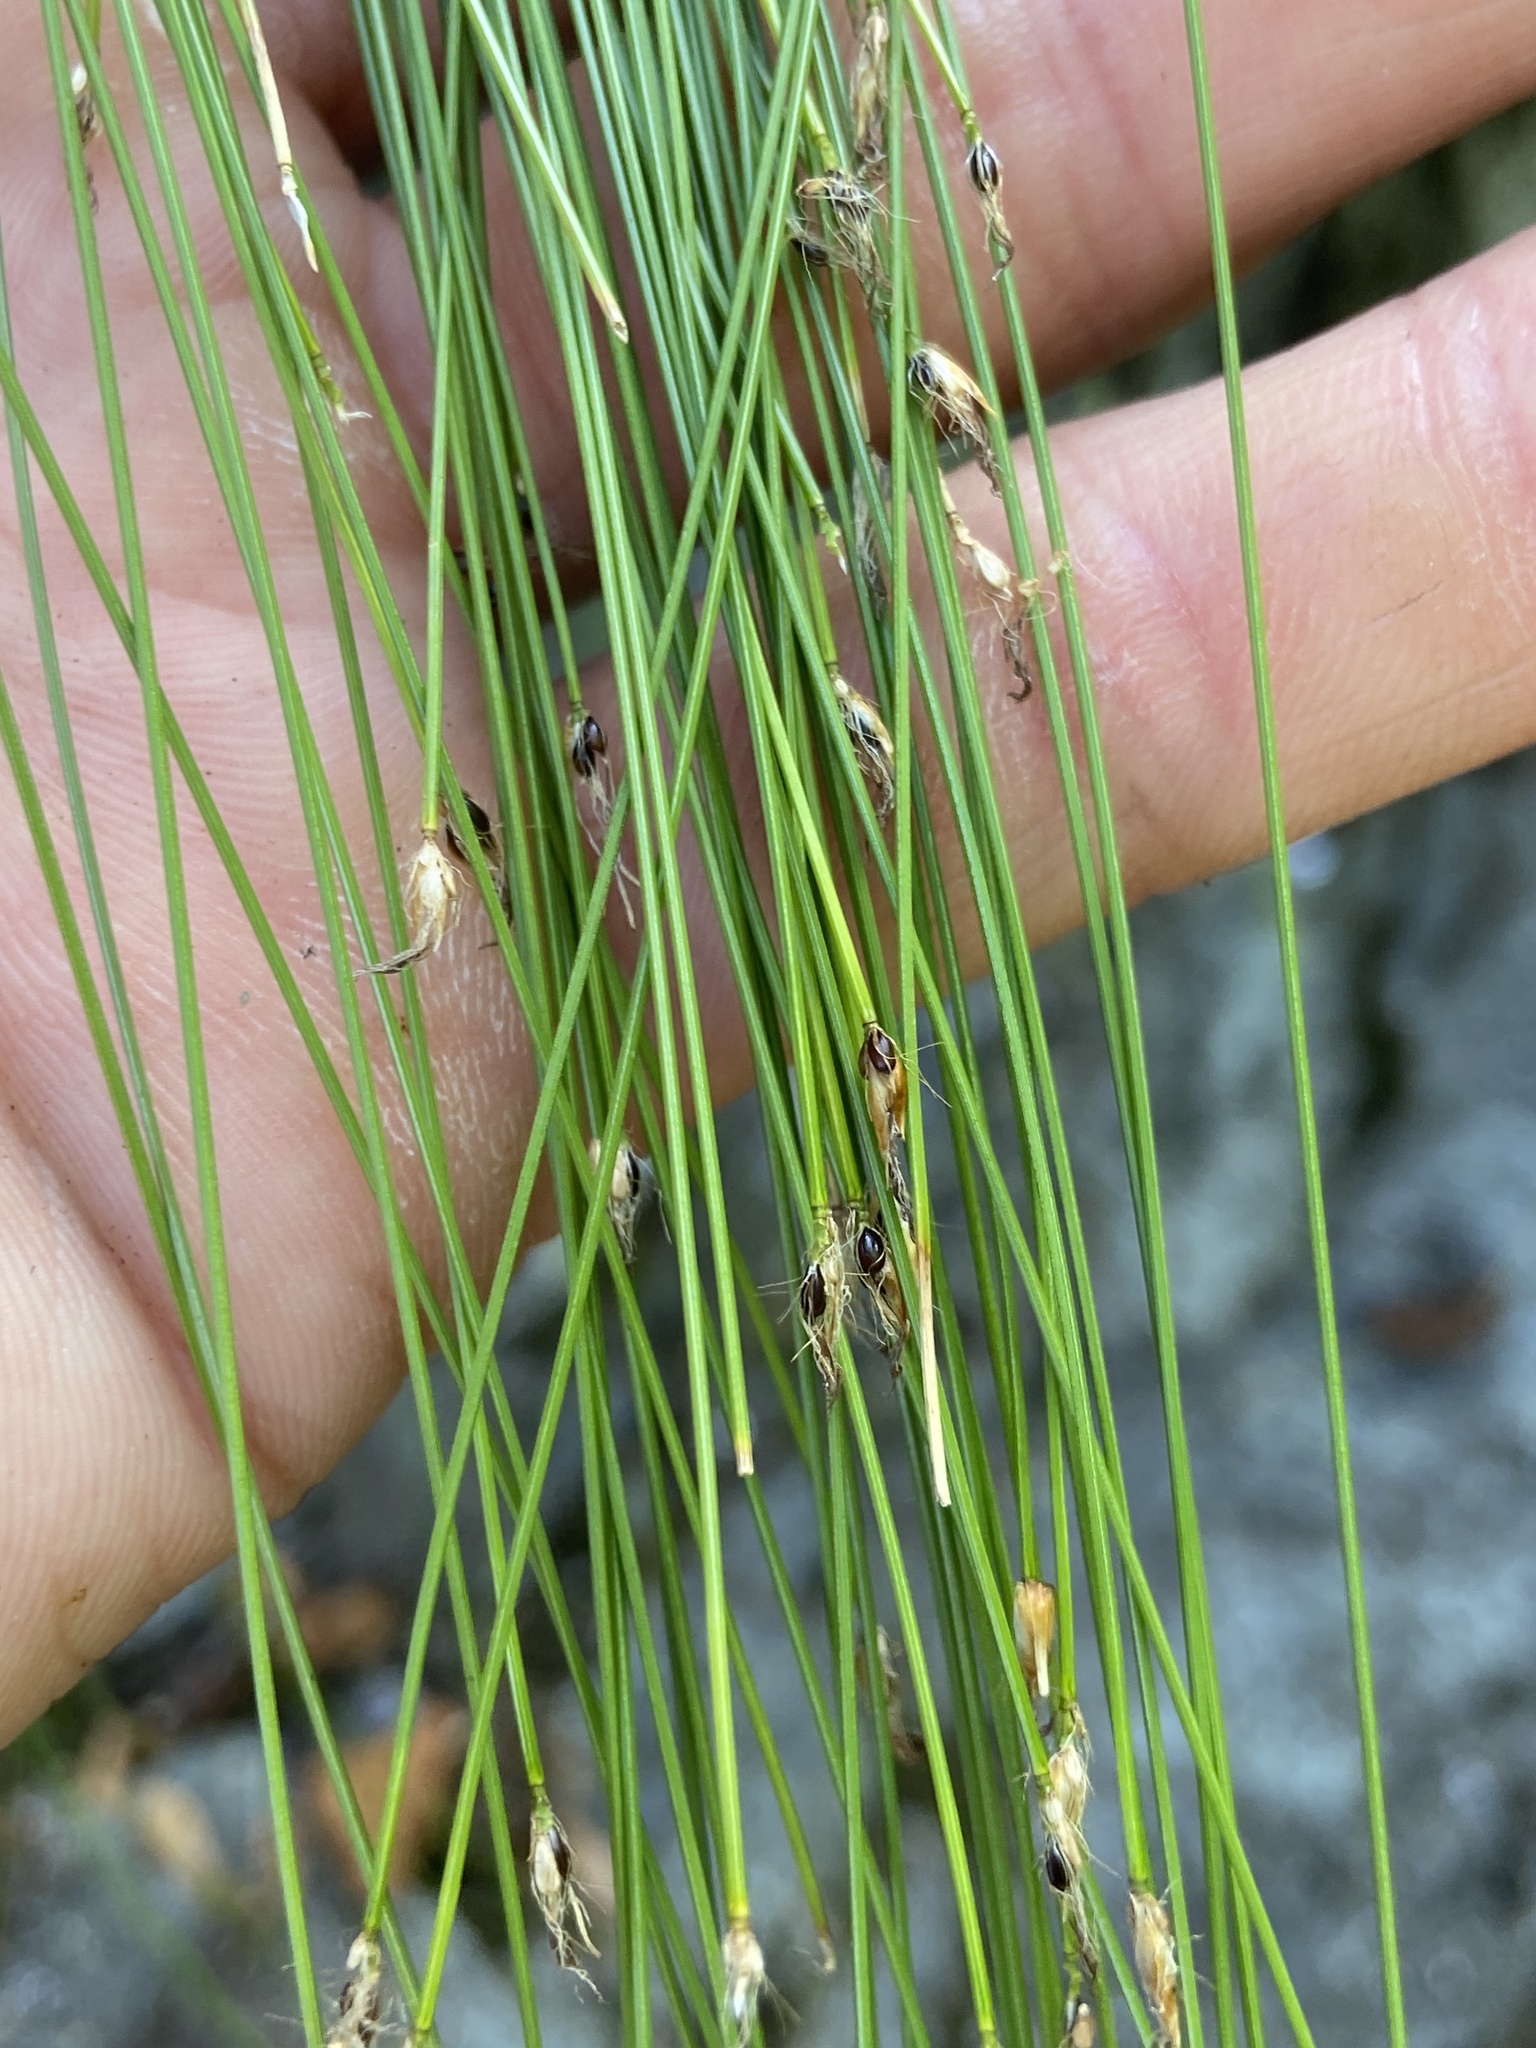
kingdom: Plantae
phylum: Tracheophyta
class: Liliopsida
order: Poales
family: Cyperaceae
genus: Trichophorum
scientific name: Trichophorum cespitosum
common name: Cespitose bulrush
